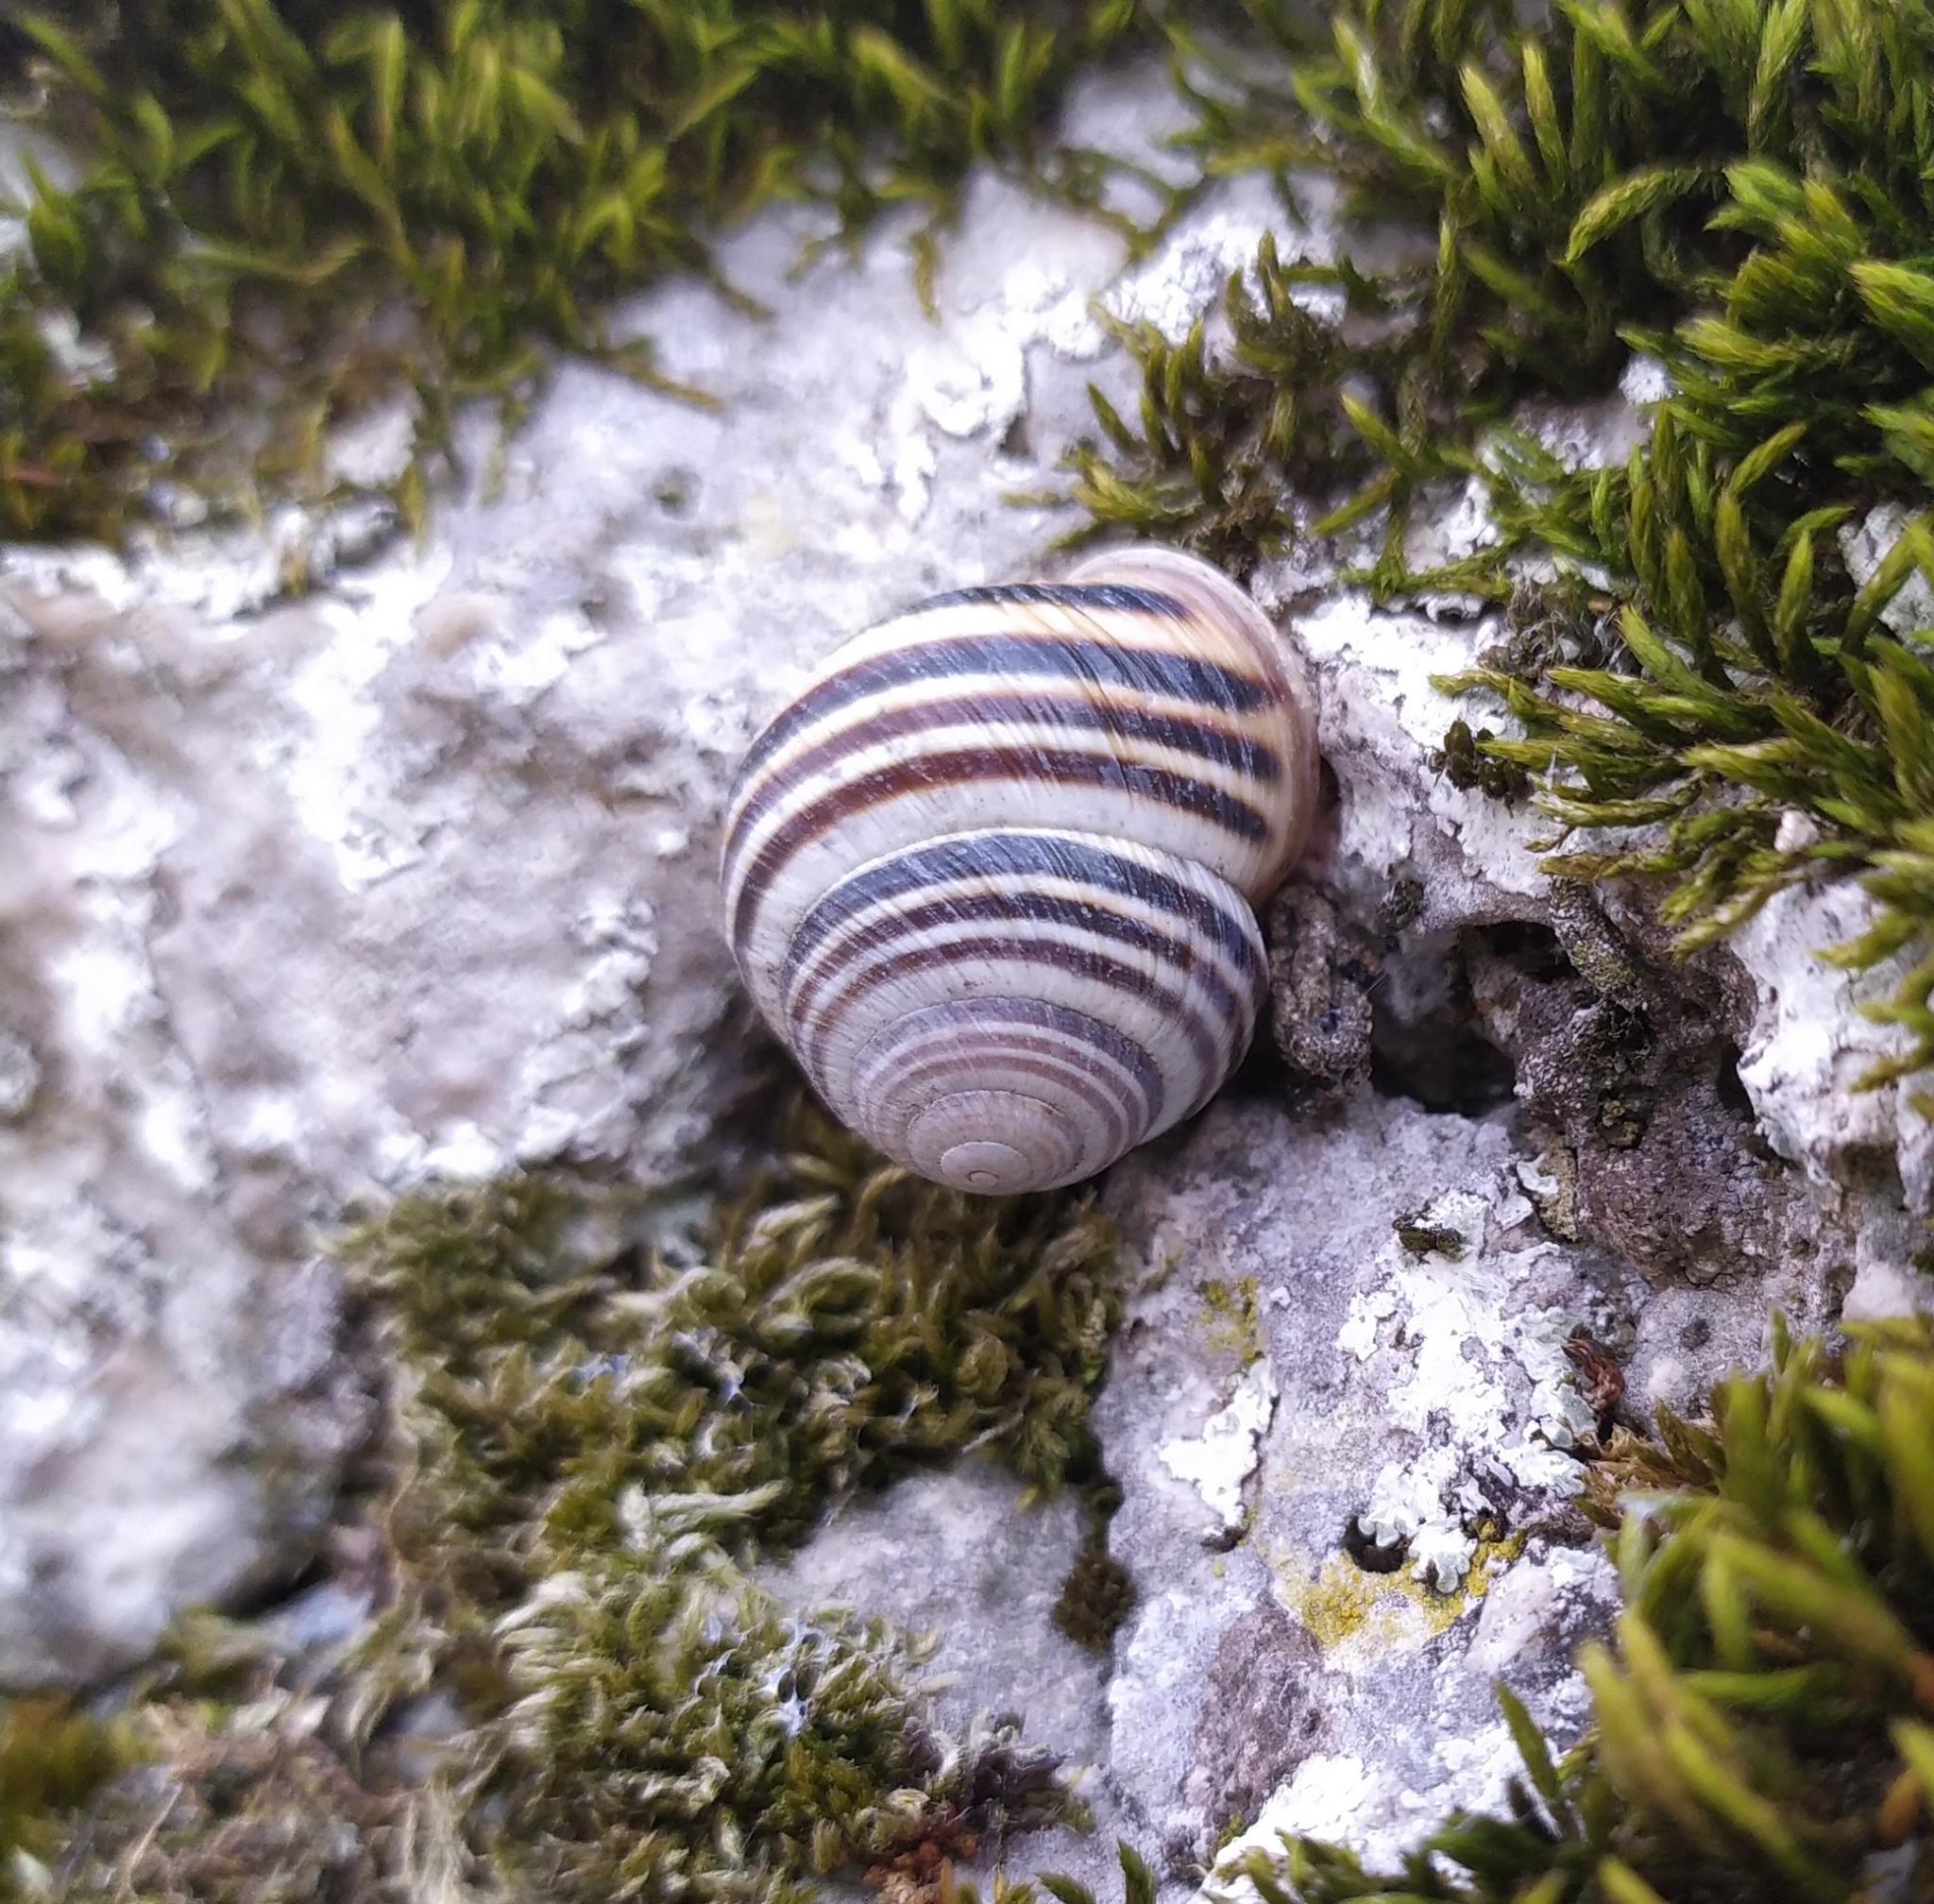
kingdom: Animalia
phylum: Mollusca
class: Gastropoda
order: Stylommatophora
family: Helicidae
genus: Caucasotachea
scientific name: Caucasotachea vindobonensis
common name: European helicid land snail
